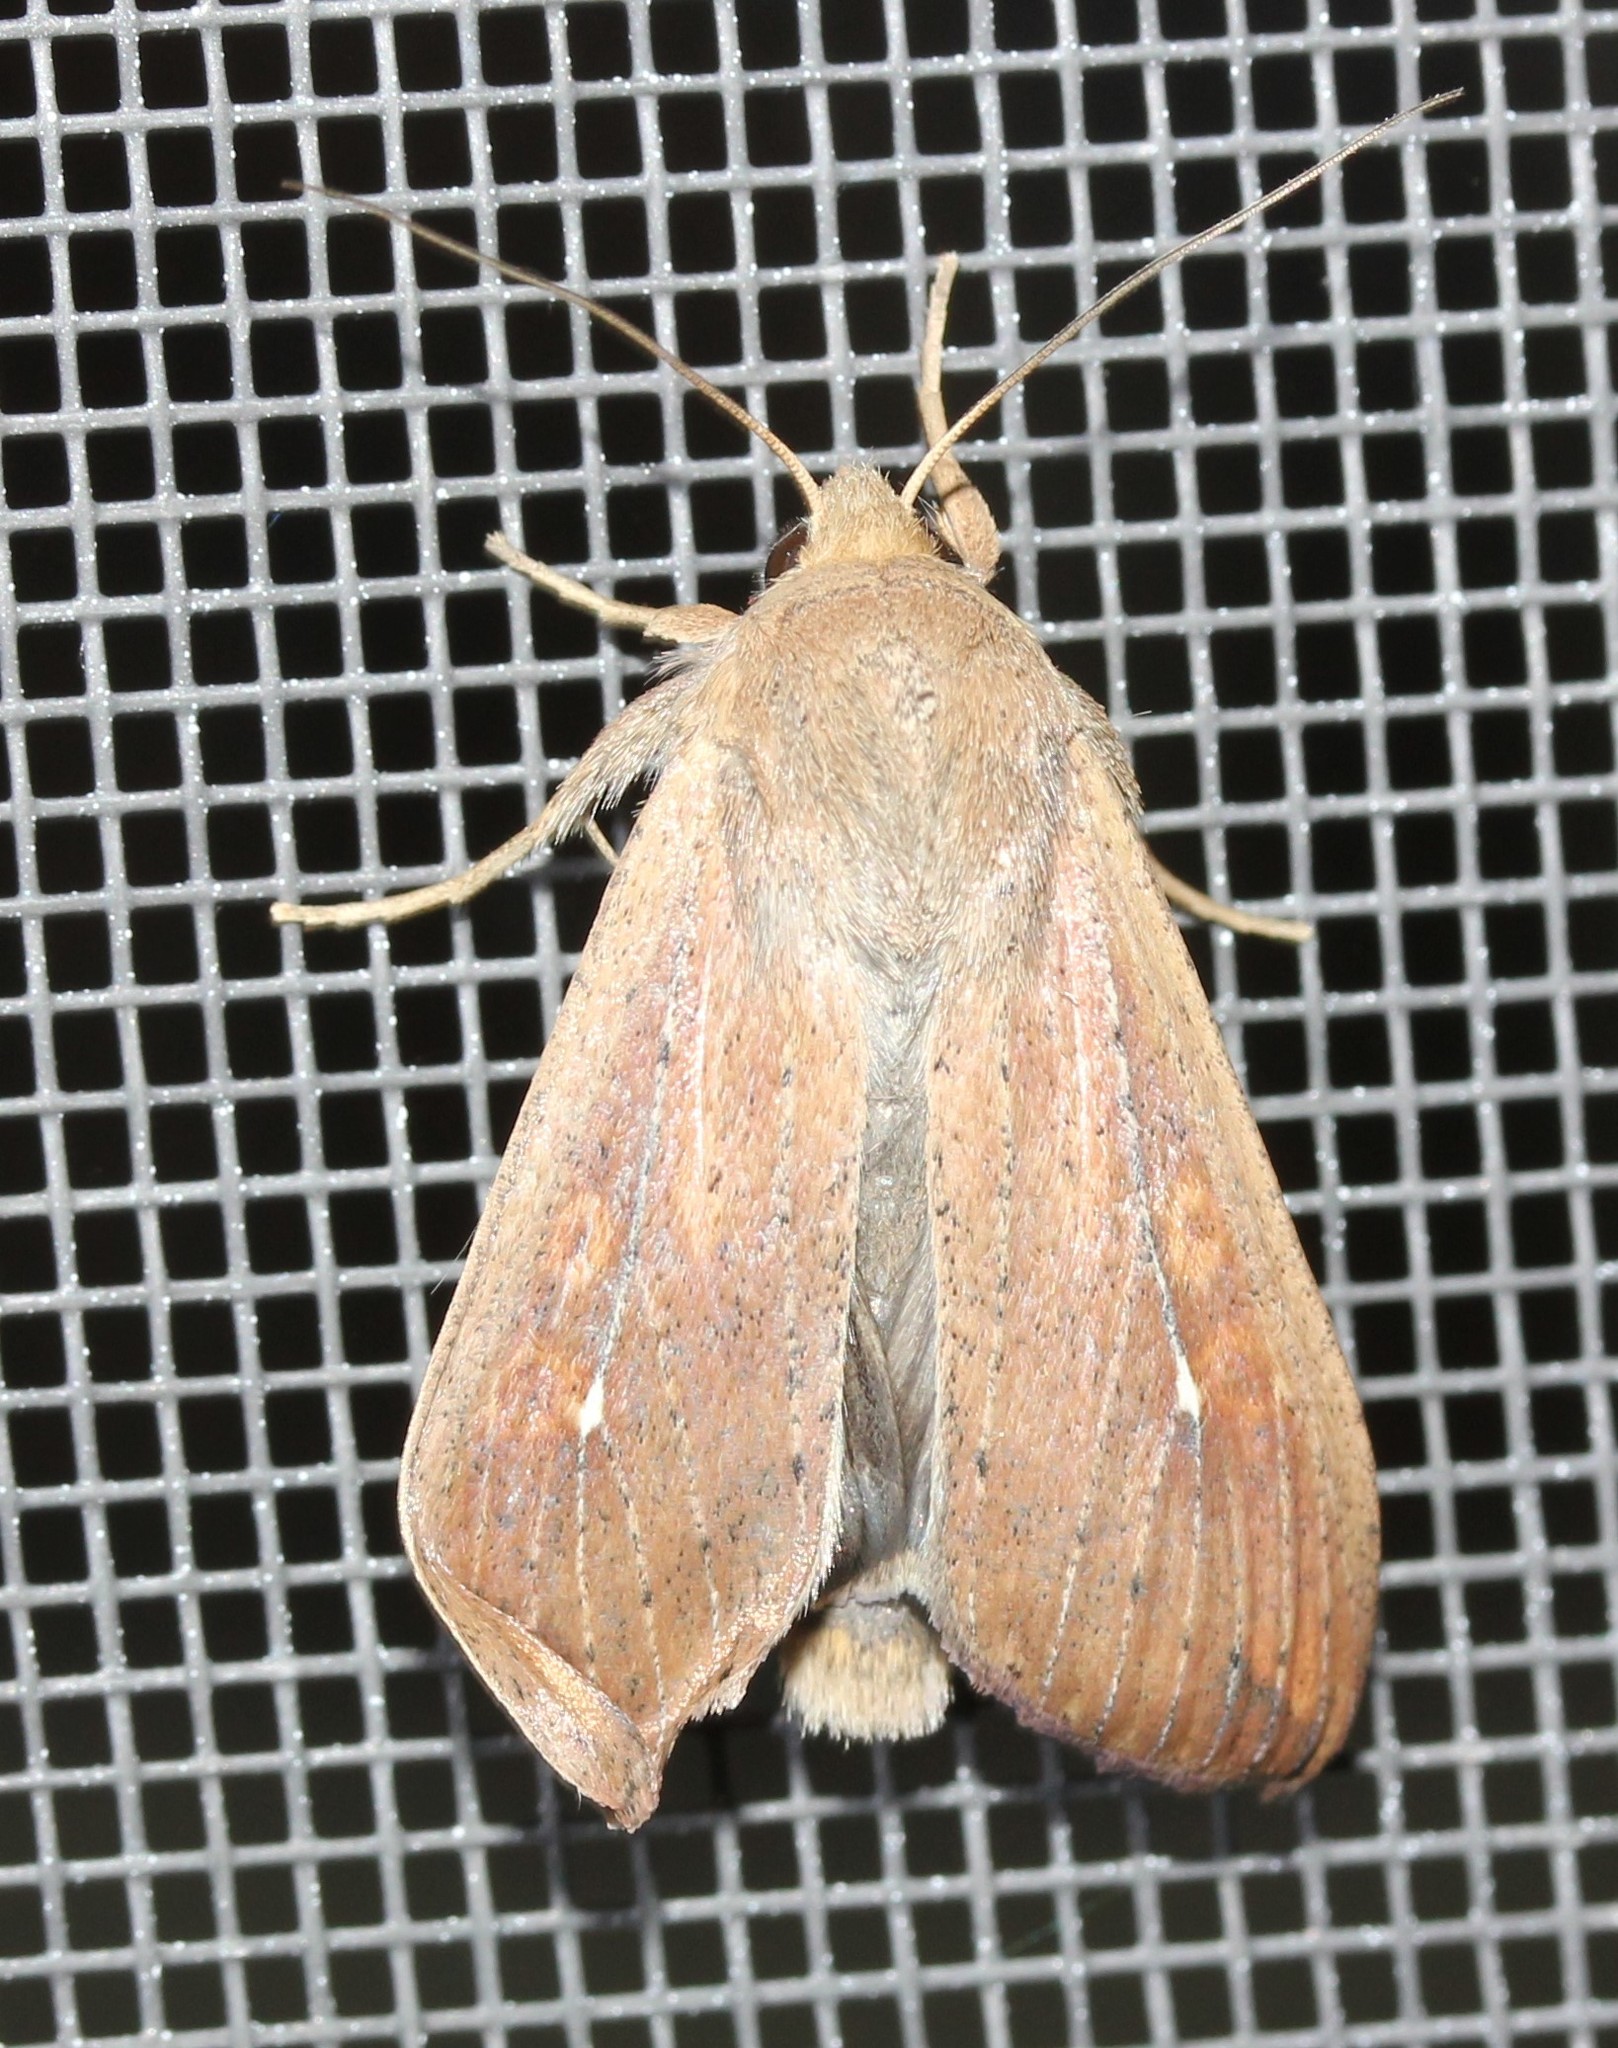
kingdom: Animalia
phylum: Arthropoda
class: Insecta
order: Lepidoptera
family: Noctuidae
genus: Mythimna
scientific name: Mythimna unipuncta
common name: White-speck
